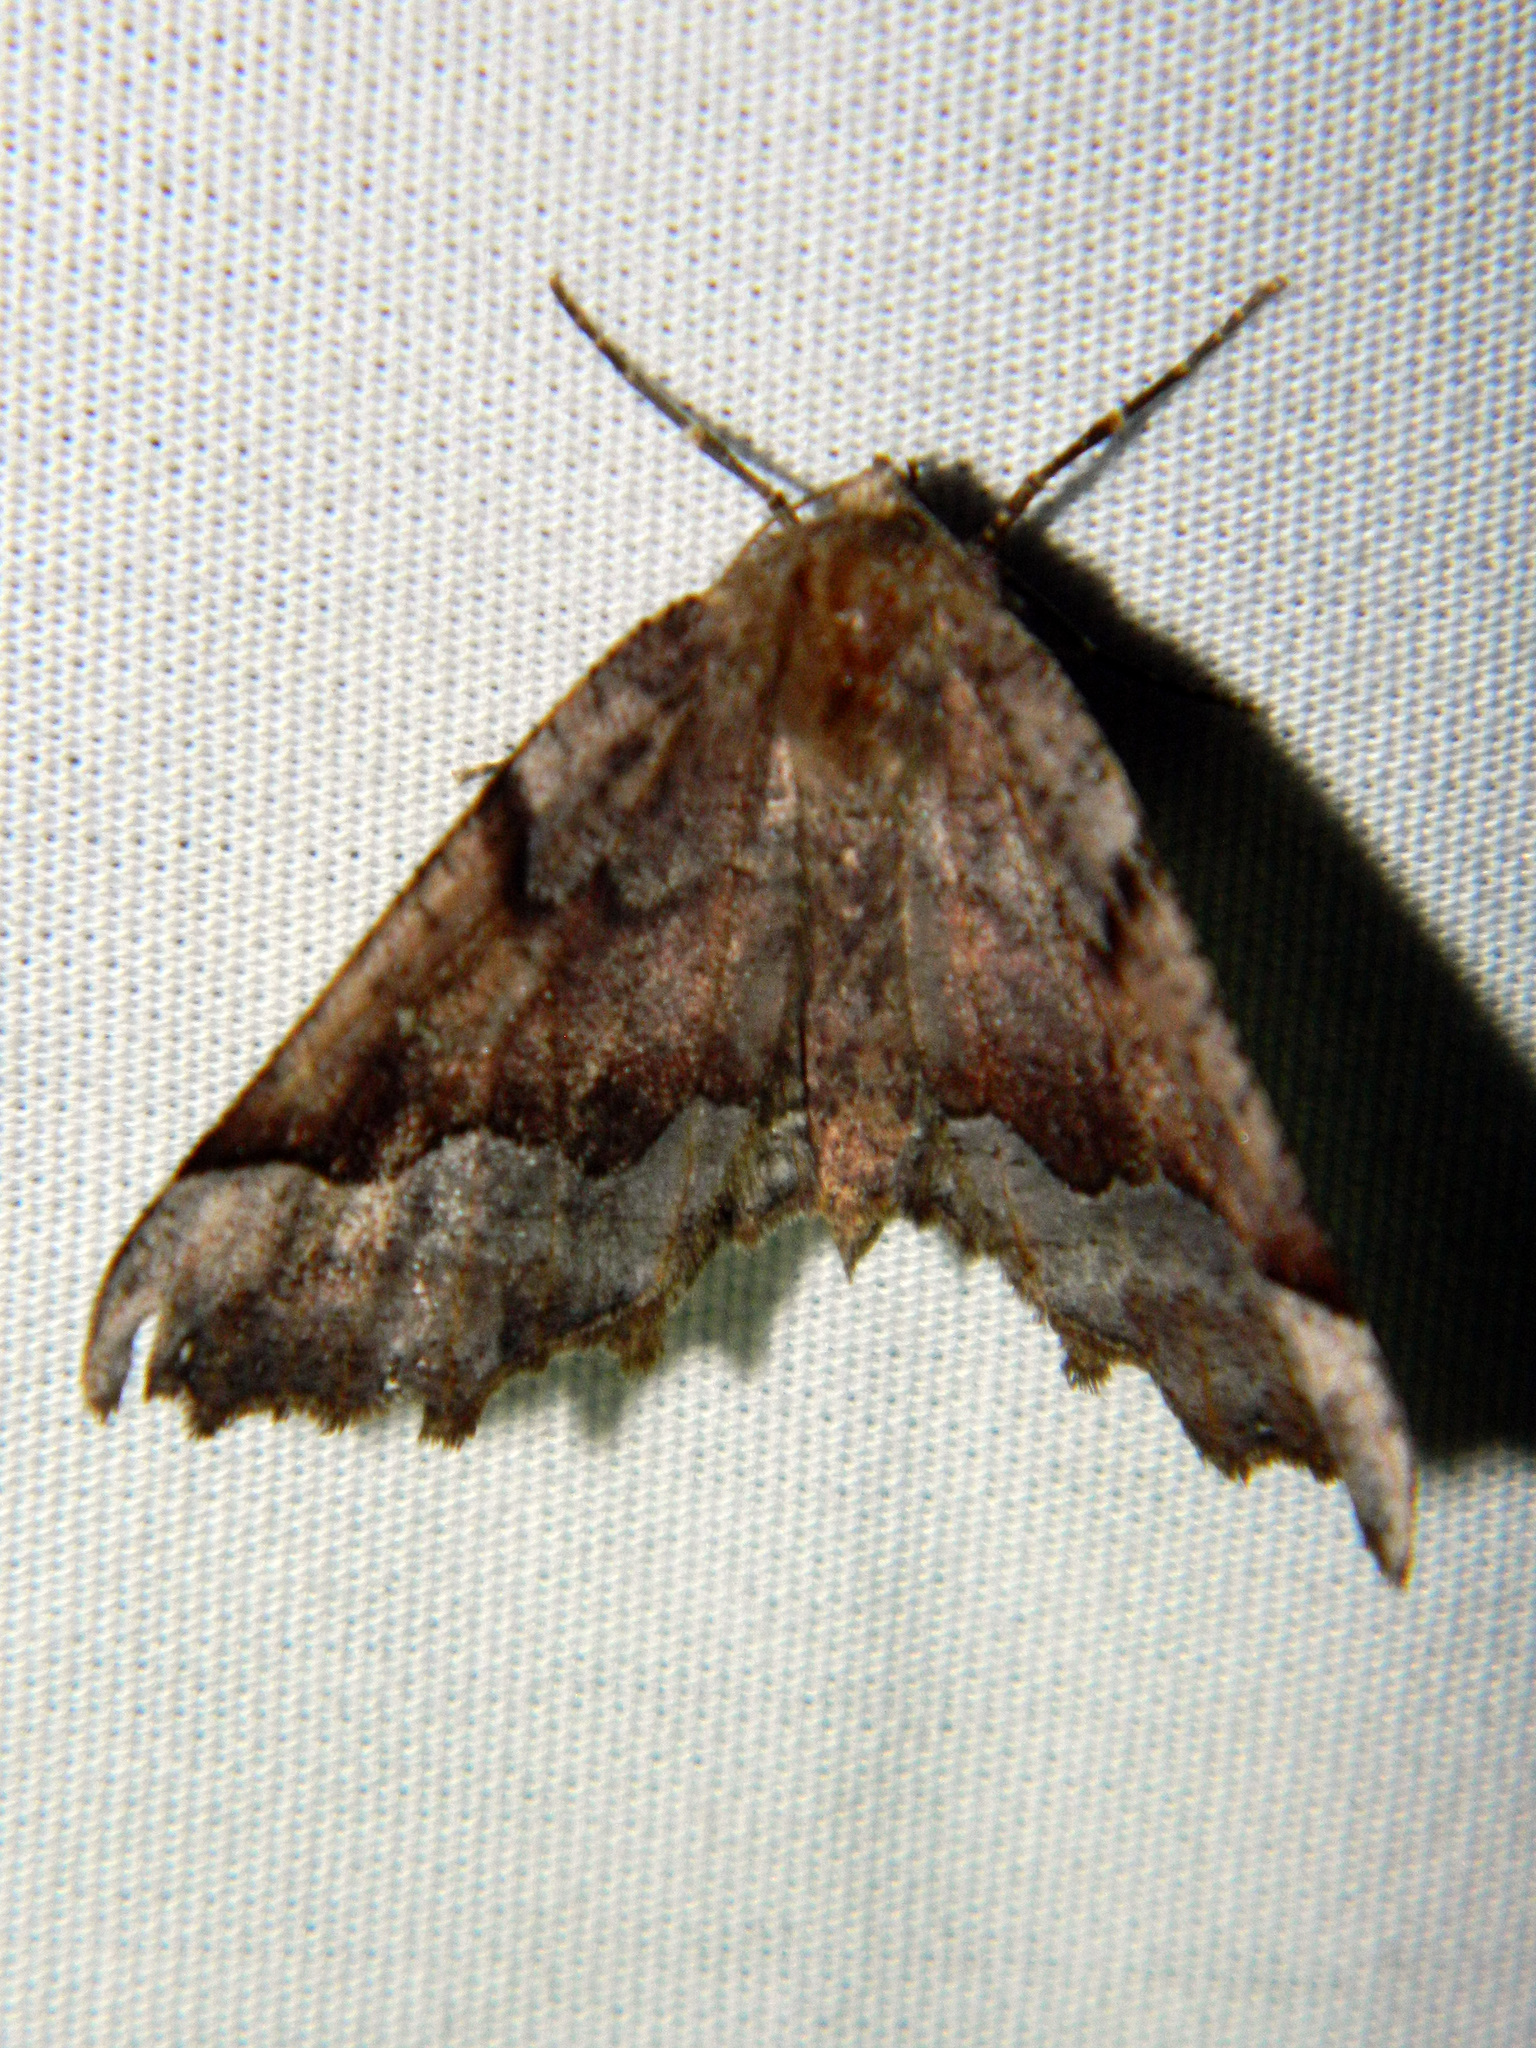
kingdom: Animalia
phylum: Arthropoda
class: Insecta
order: Lepidoptera
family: Geometridae
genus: Pero
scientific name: Pero morrisonaria
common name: Morrison's pero
